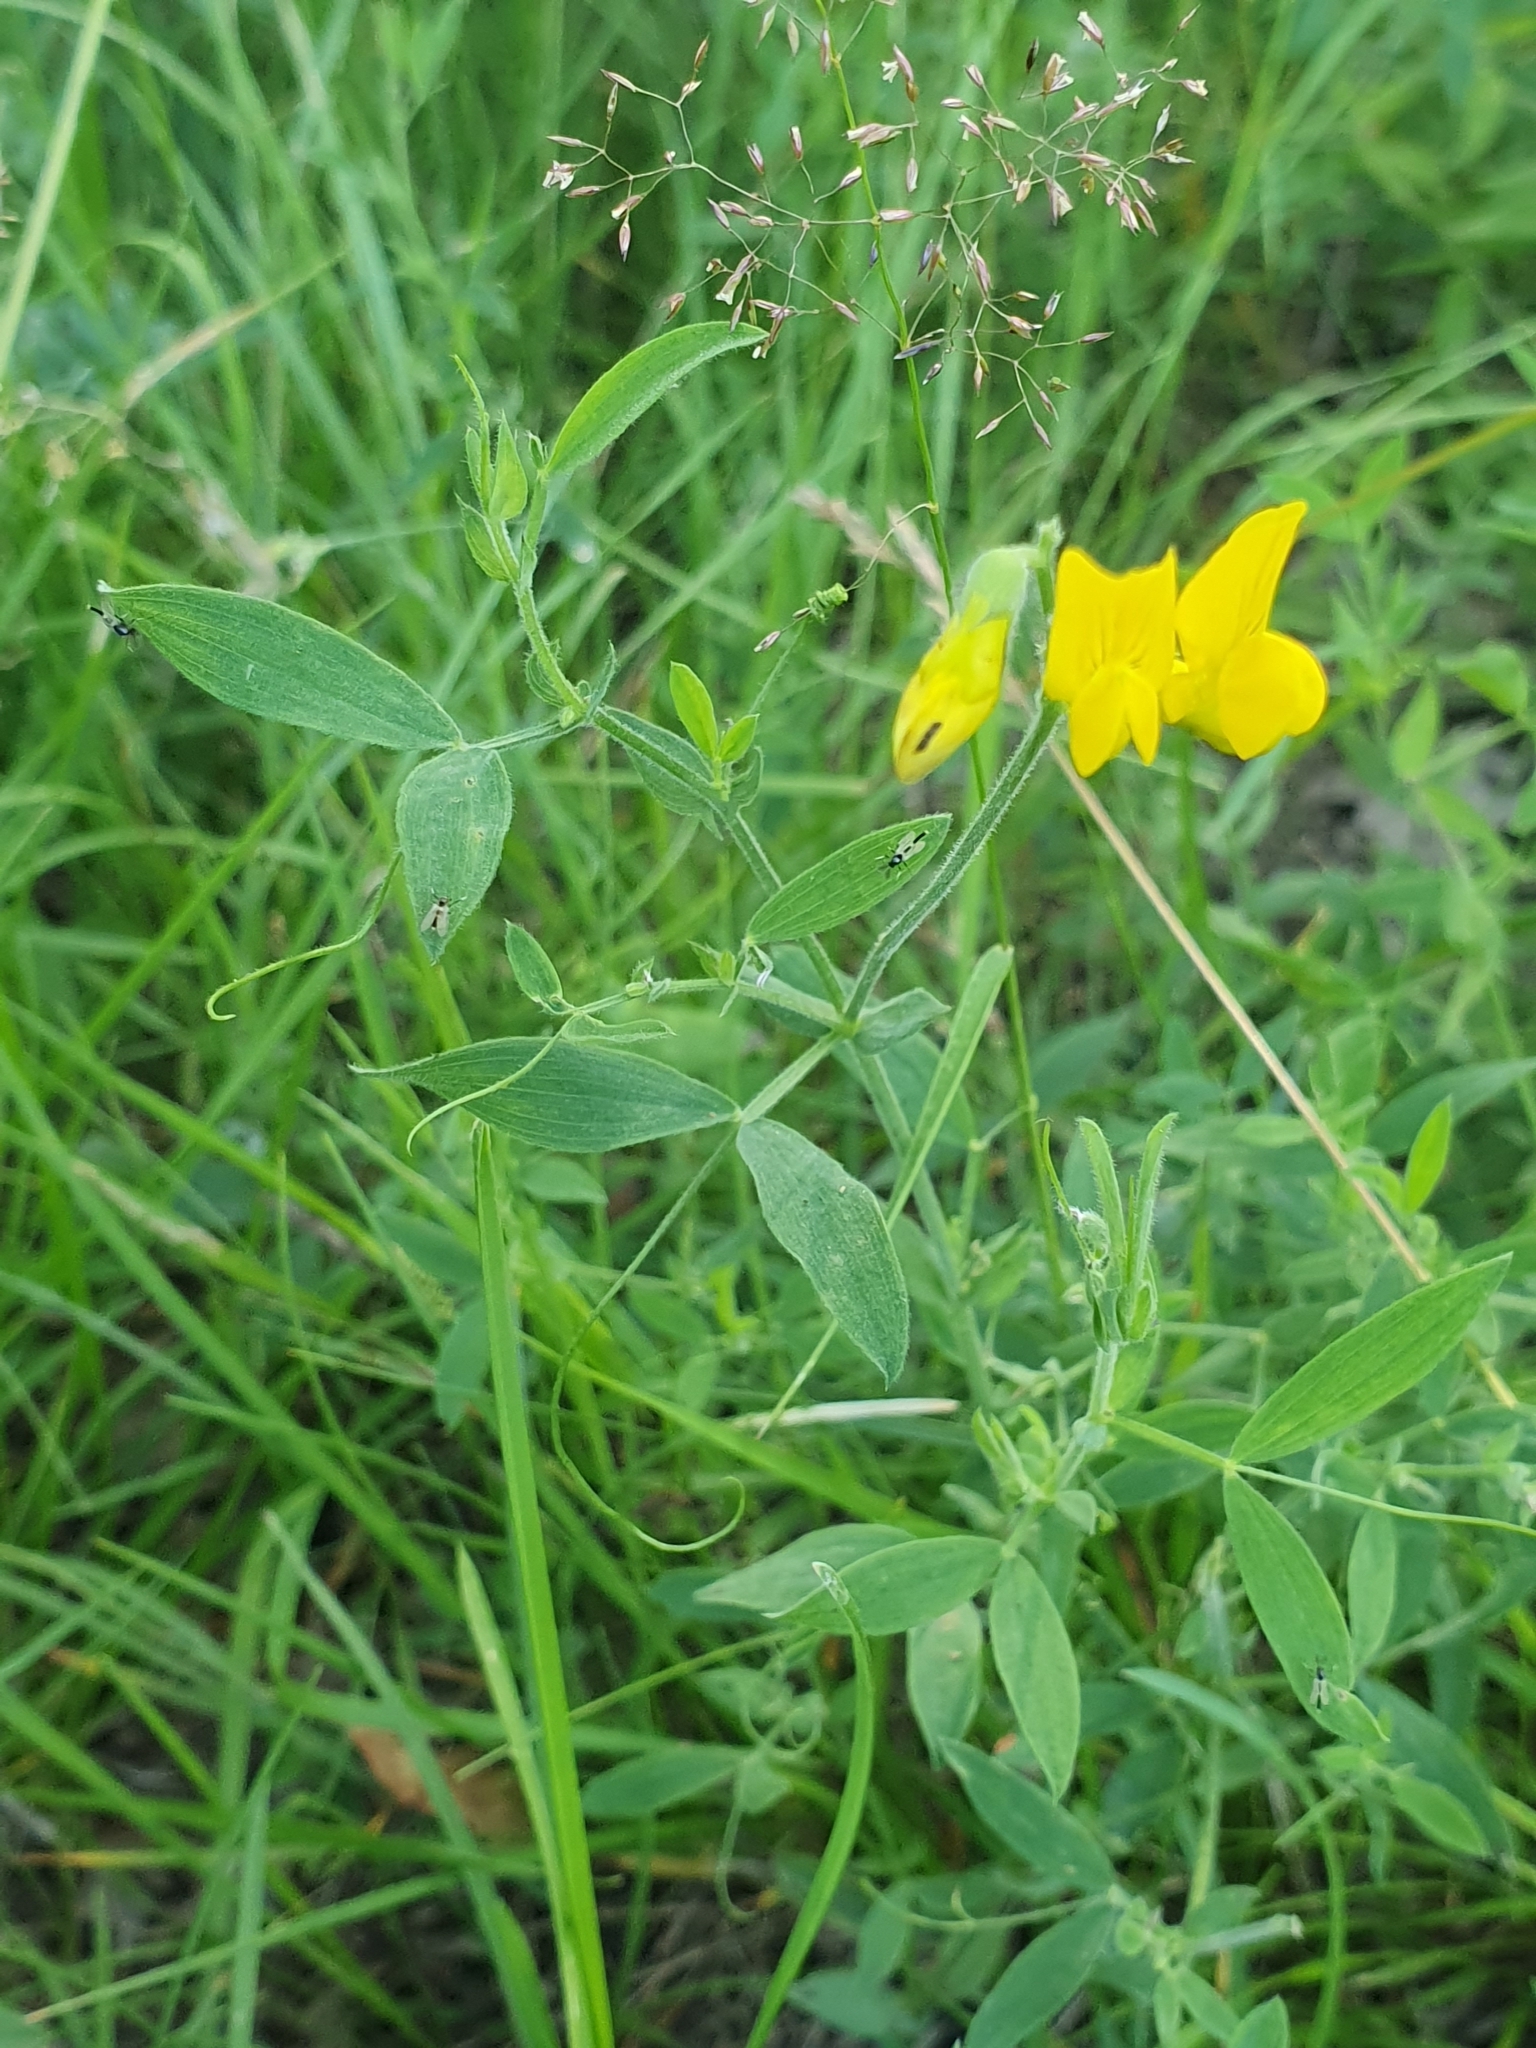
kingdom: Plantae
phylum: Tracheophyta
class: Magnoliopsida
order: Fabales
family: Fabaceae
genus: Lathyrus
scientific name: Lathyrus pratensis
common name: Meadow vetchling
